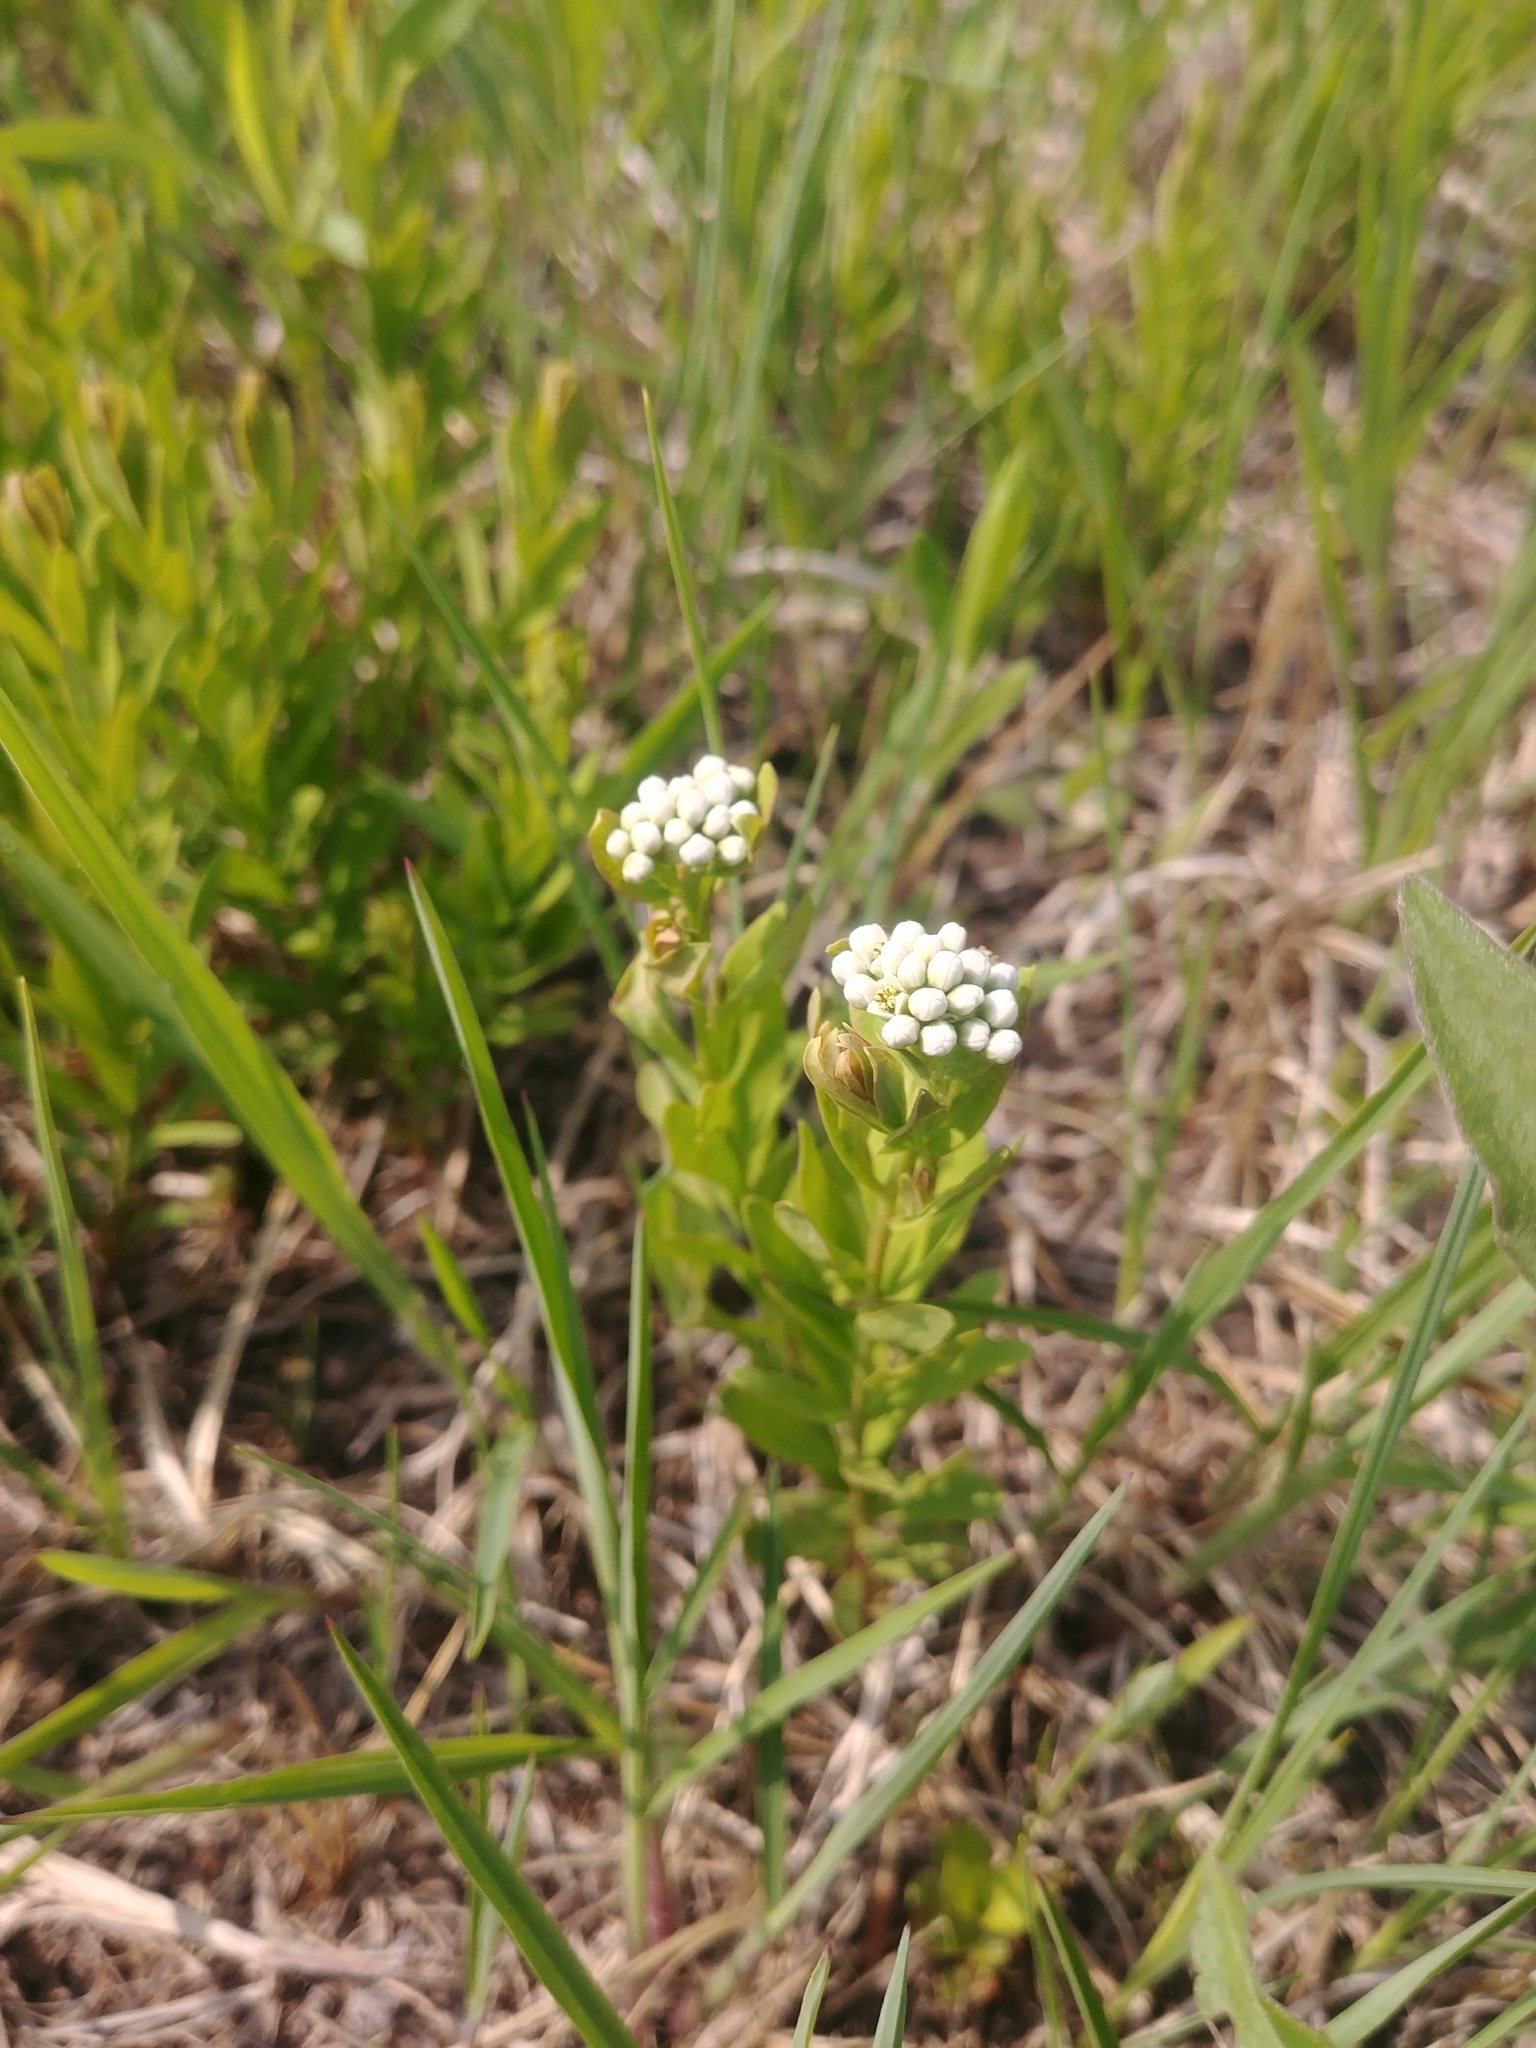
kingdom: Plantae
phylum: Tracheophyta
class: Magnoliopsida
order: Santalales
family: Comandraceae
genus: Comandra
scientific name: Comandra umbellata
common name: Bastard toadflax
